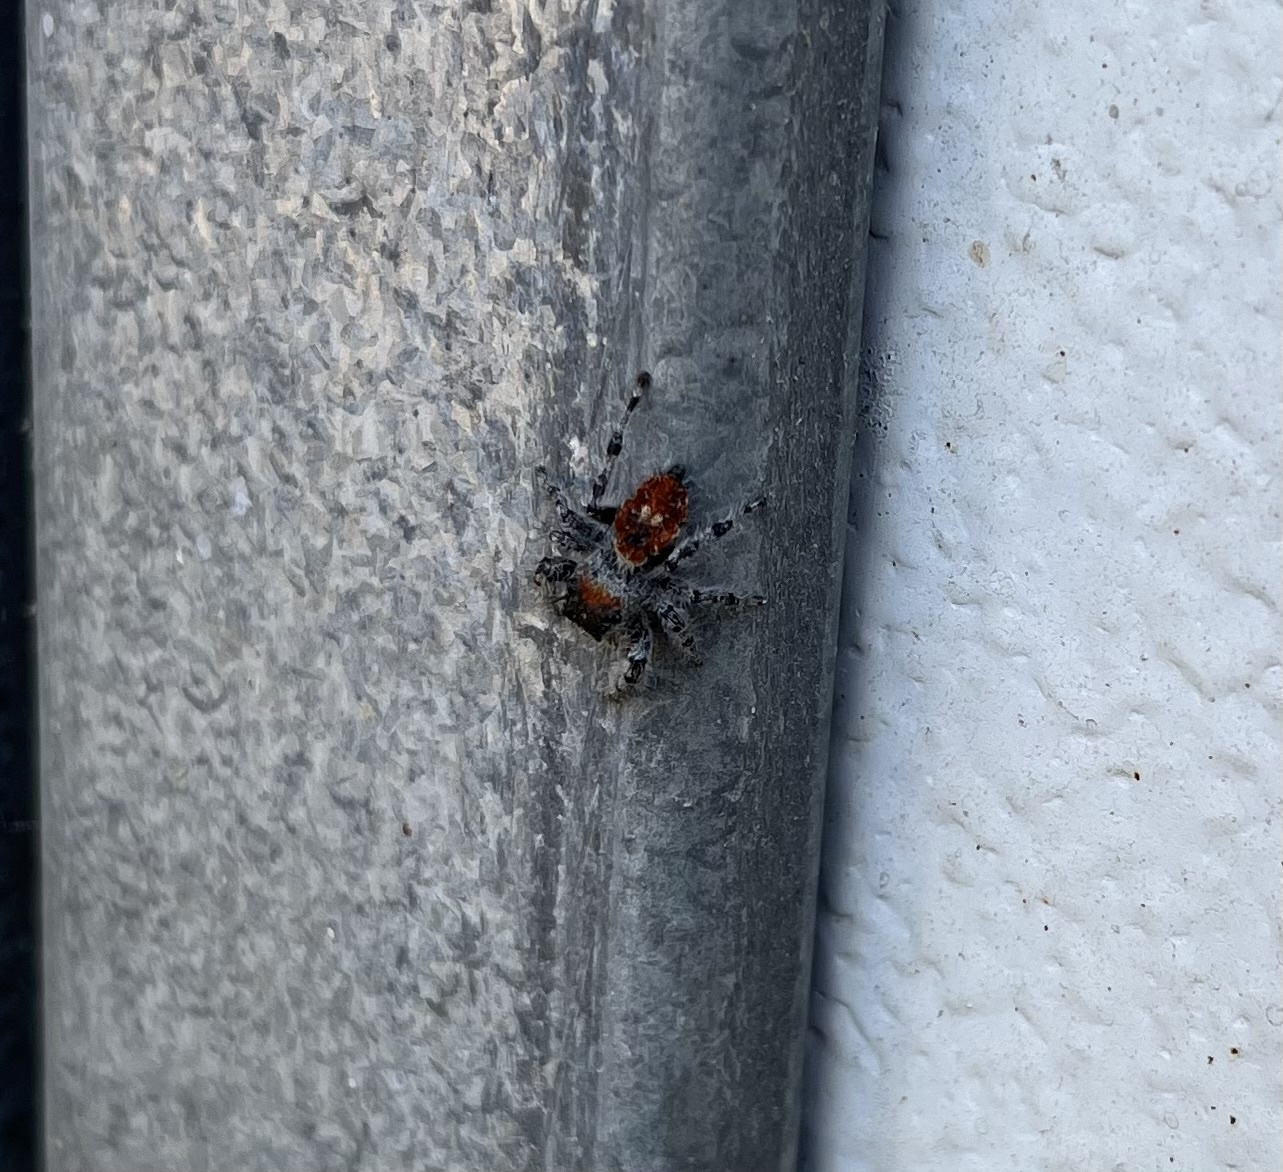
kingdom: Animalia
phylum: Arthropoda
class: Arachnida
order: Araneae
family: Salticidae
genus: Phidippus
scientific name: Phidippus adumbratus
